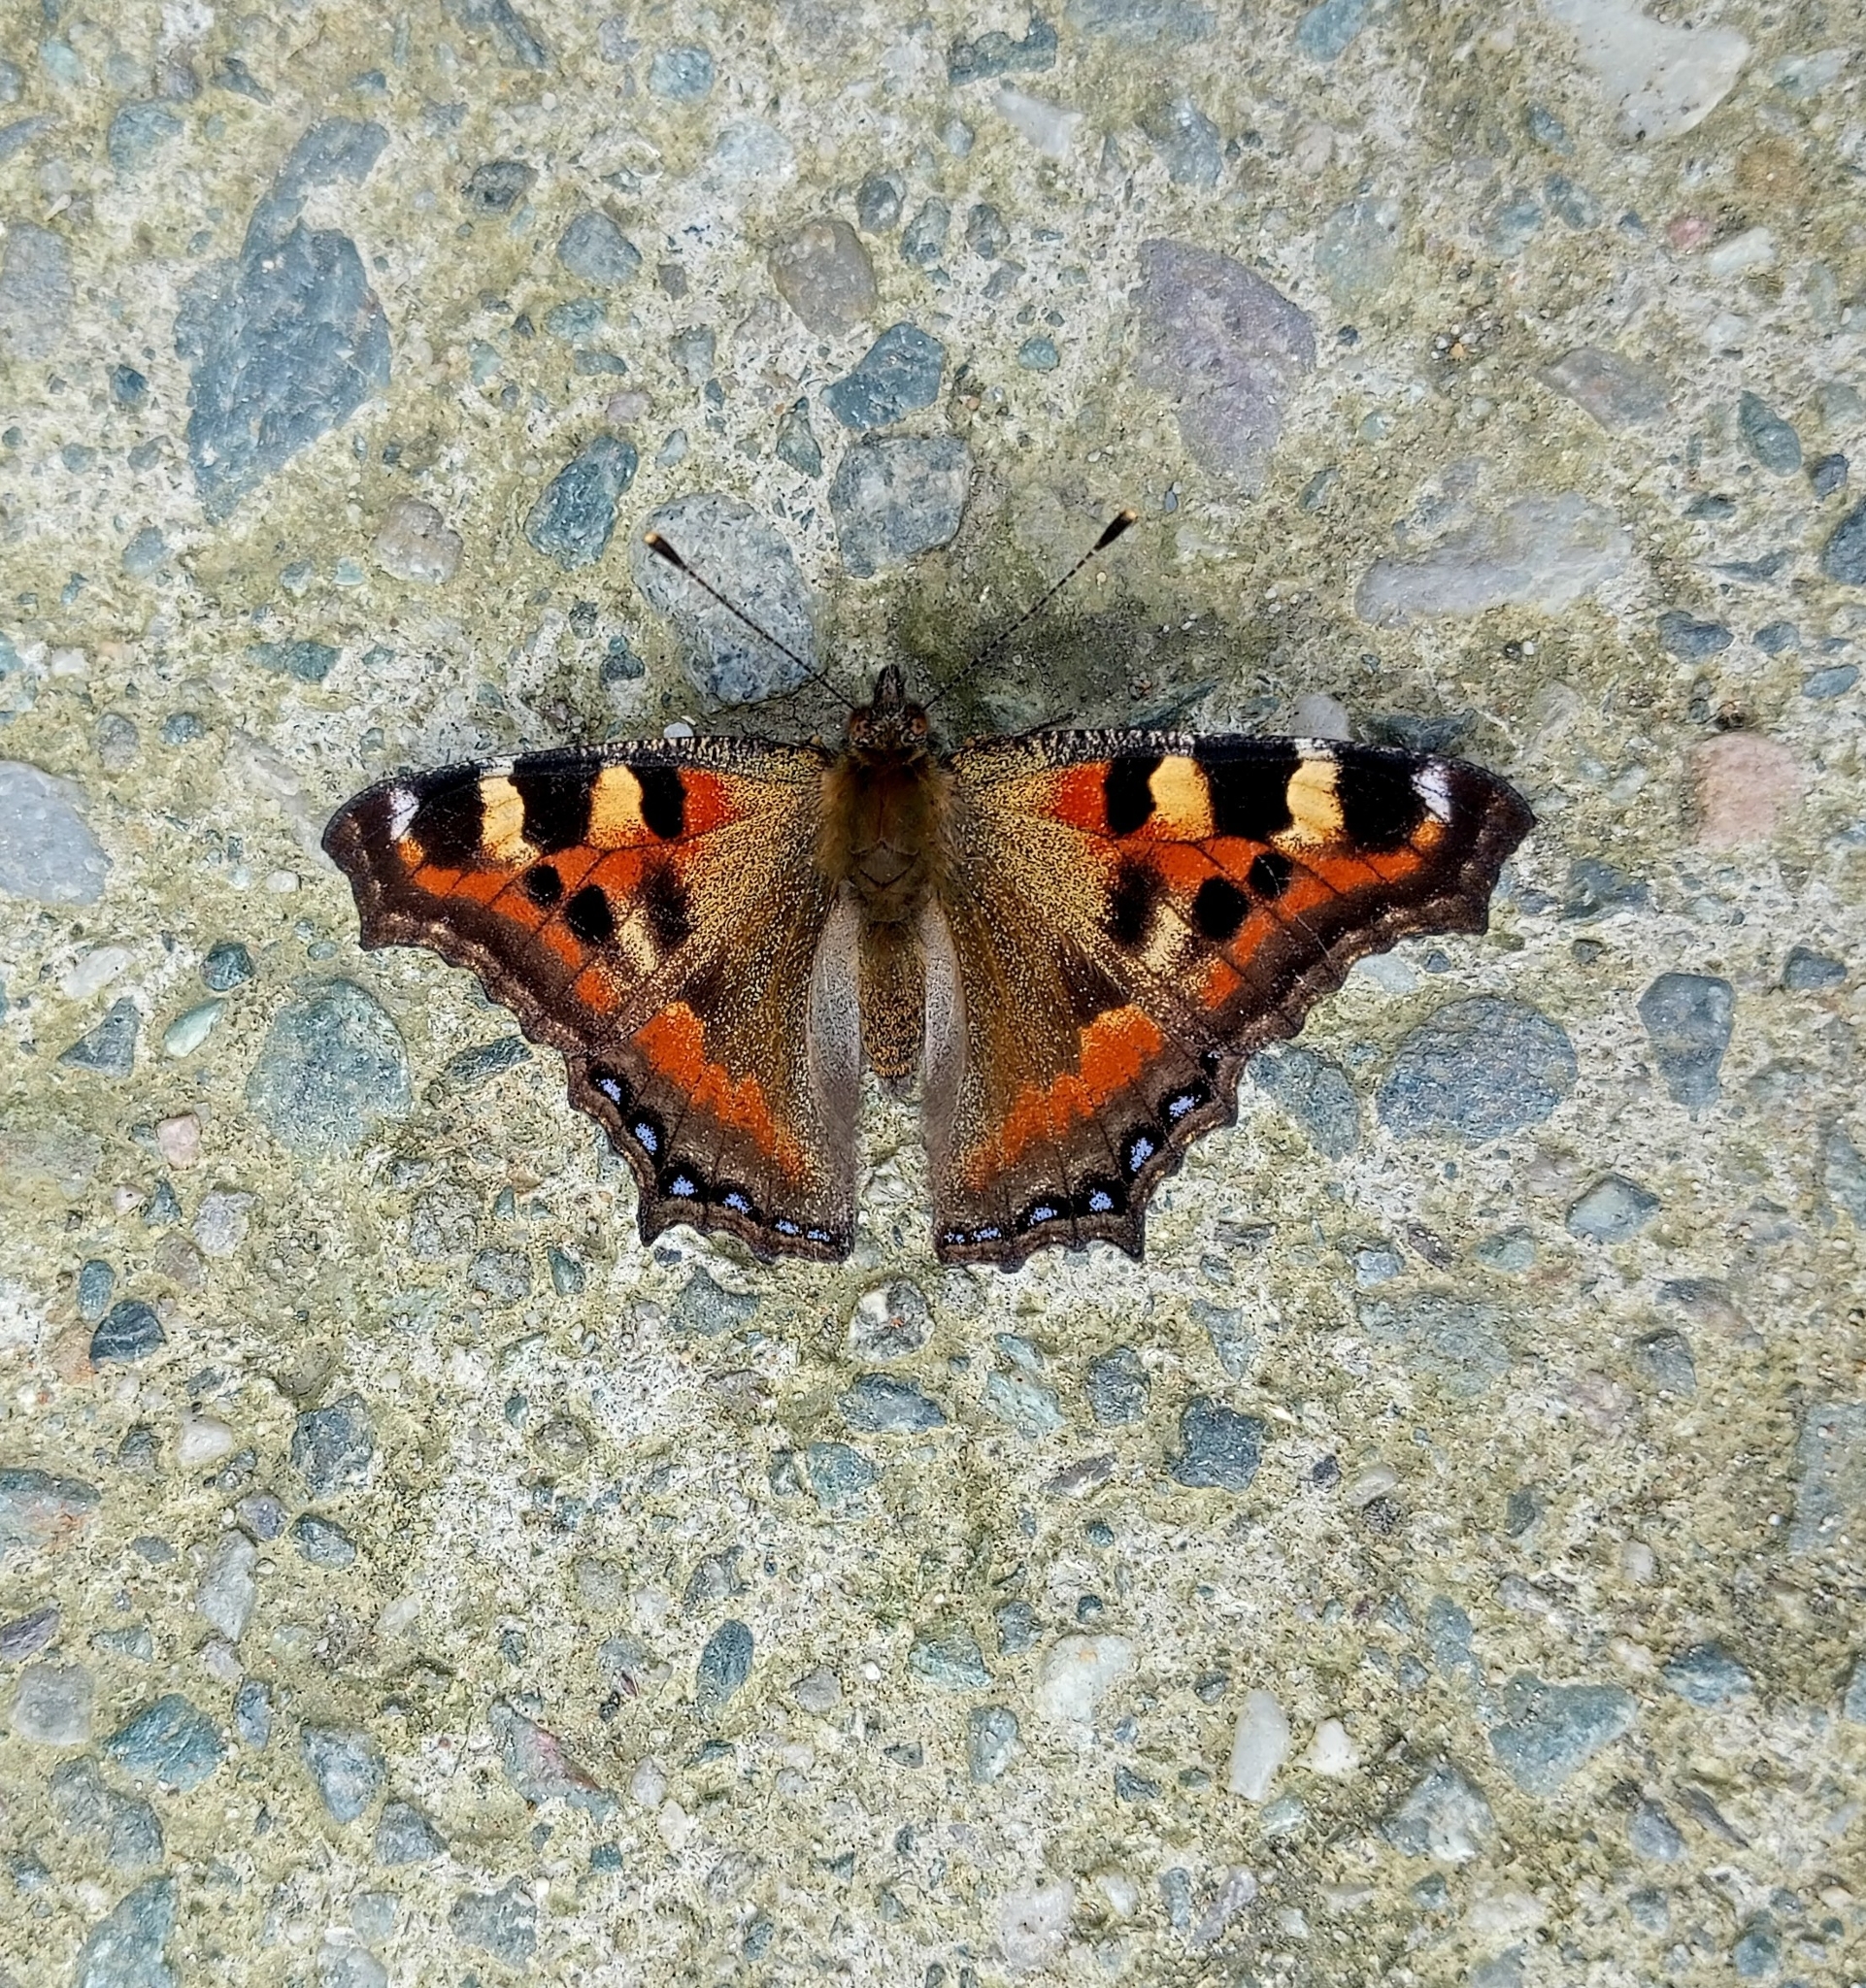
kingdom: Animalia
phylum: Arthropoda
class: Insecta
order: Lepidoptera
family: Nymphalidae
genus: Aglais
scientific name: Aglais caschmirensis
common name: Indian tortoiseshell
